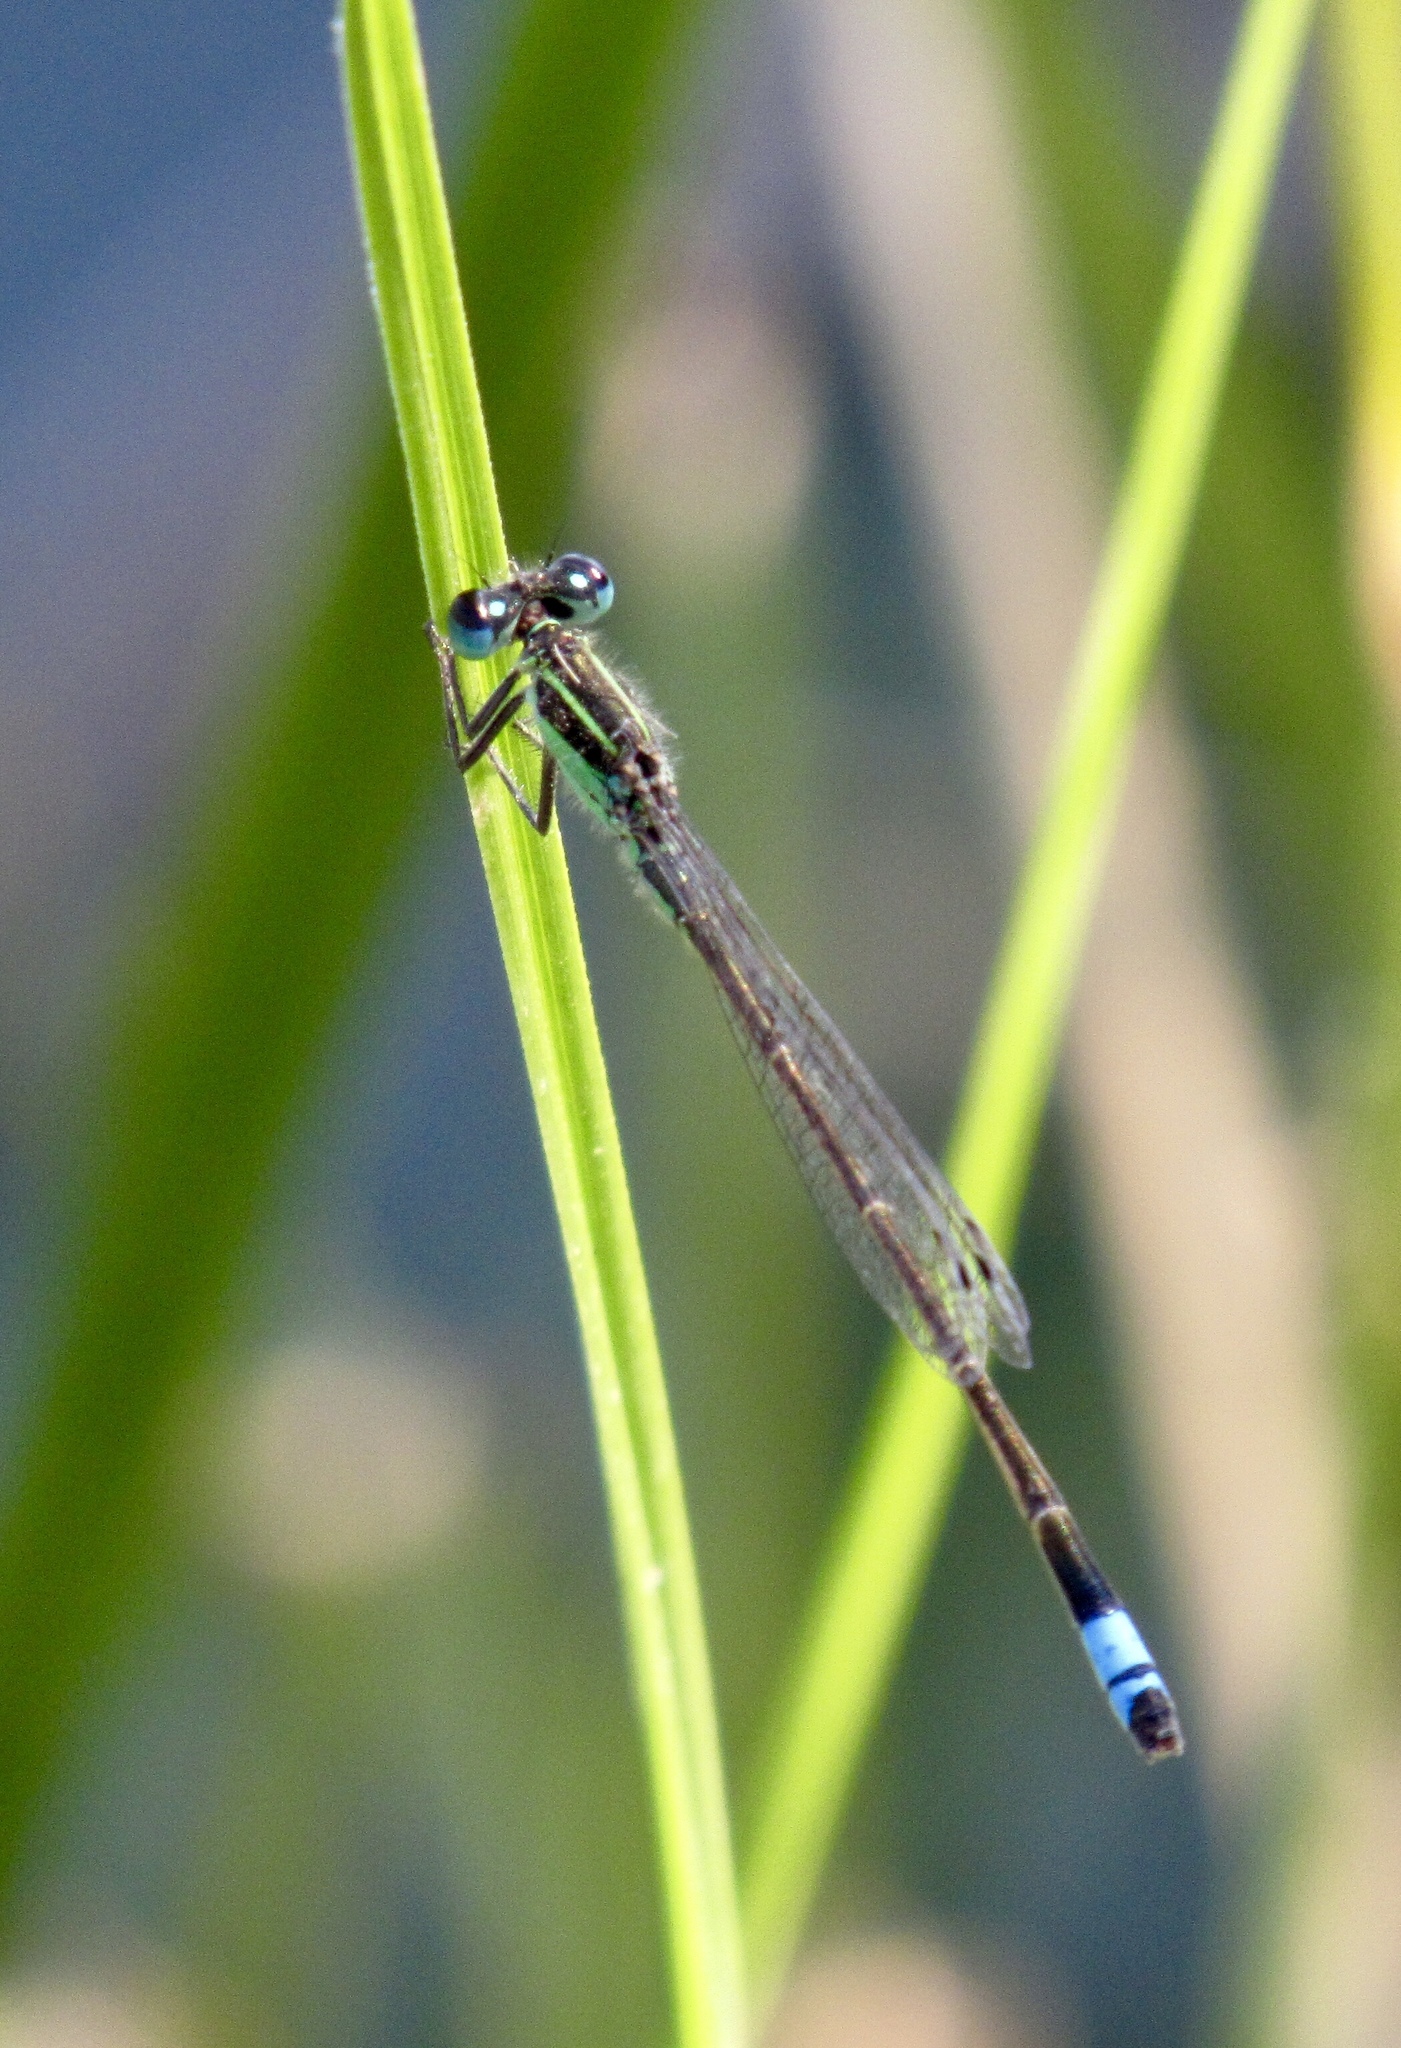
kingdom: Animalia
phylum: Arthropoda
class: Insecta
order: Odonata
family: Coenagrionidae
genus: Ischnura
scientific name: Ischnura ramburii
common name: Rambur's forktail
